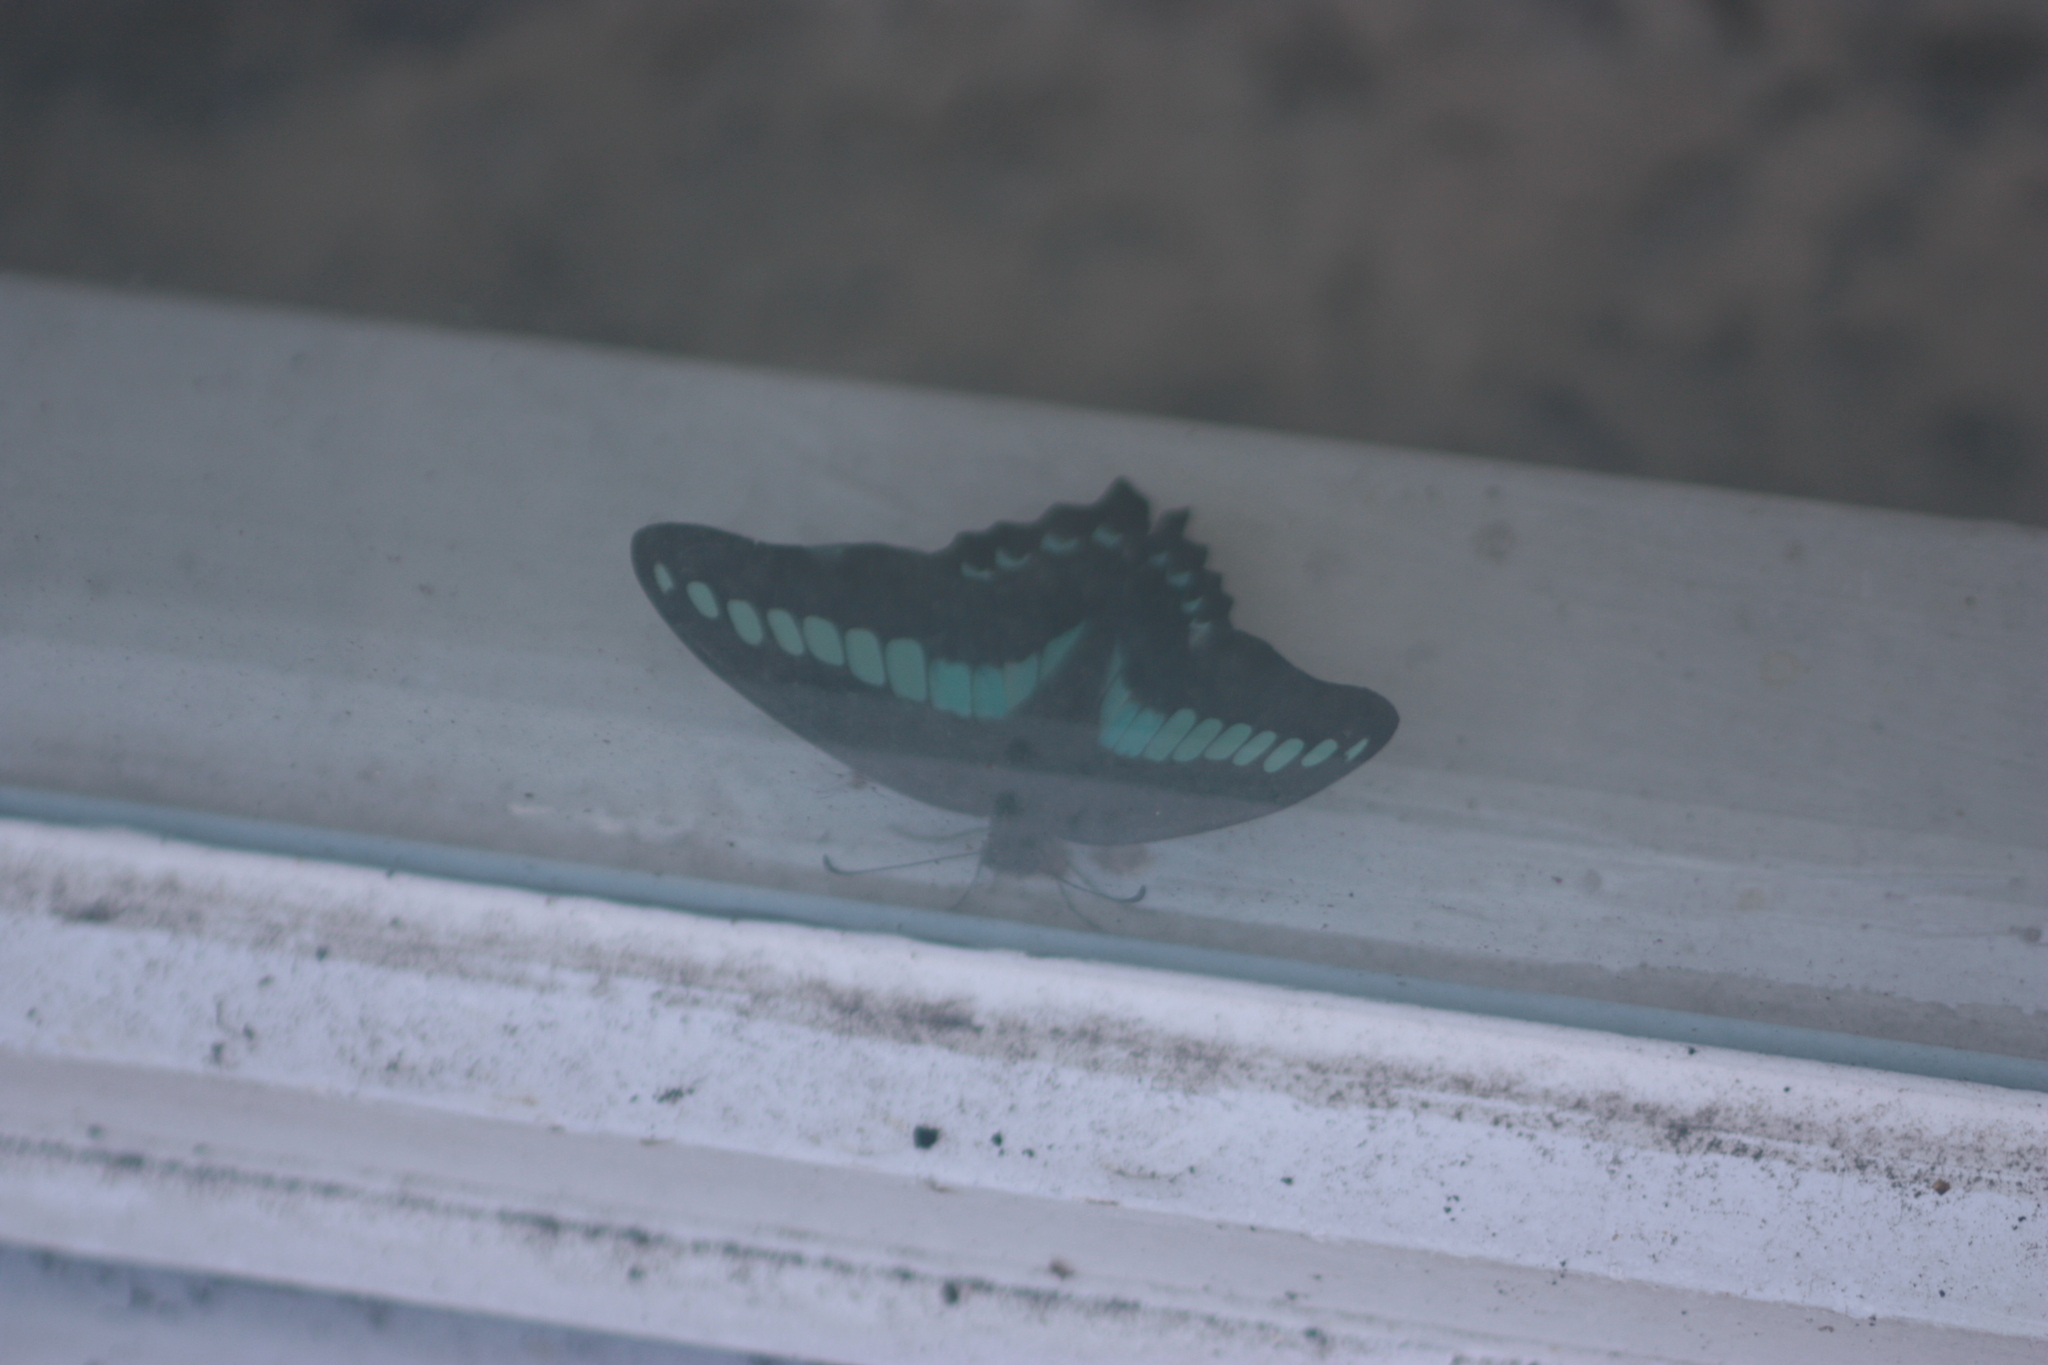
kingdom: Fungi
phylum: Ascomycota
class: Sordariomycetes
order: Microascales
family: Microascaceae
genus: Graphium
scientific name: Graphium sarpedon
